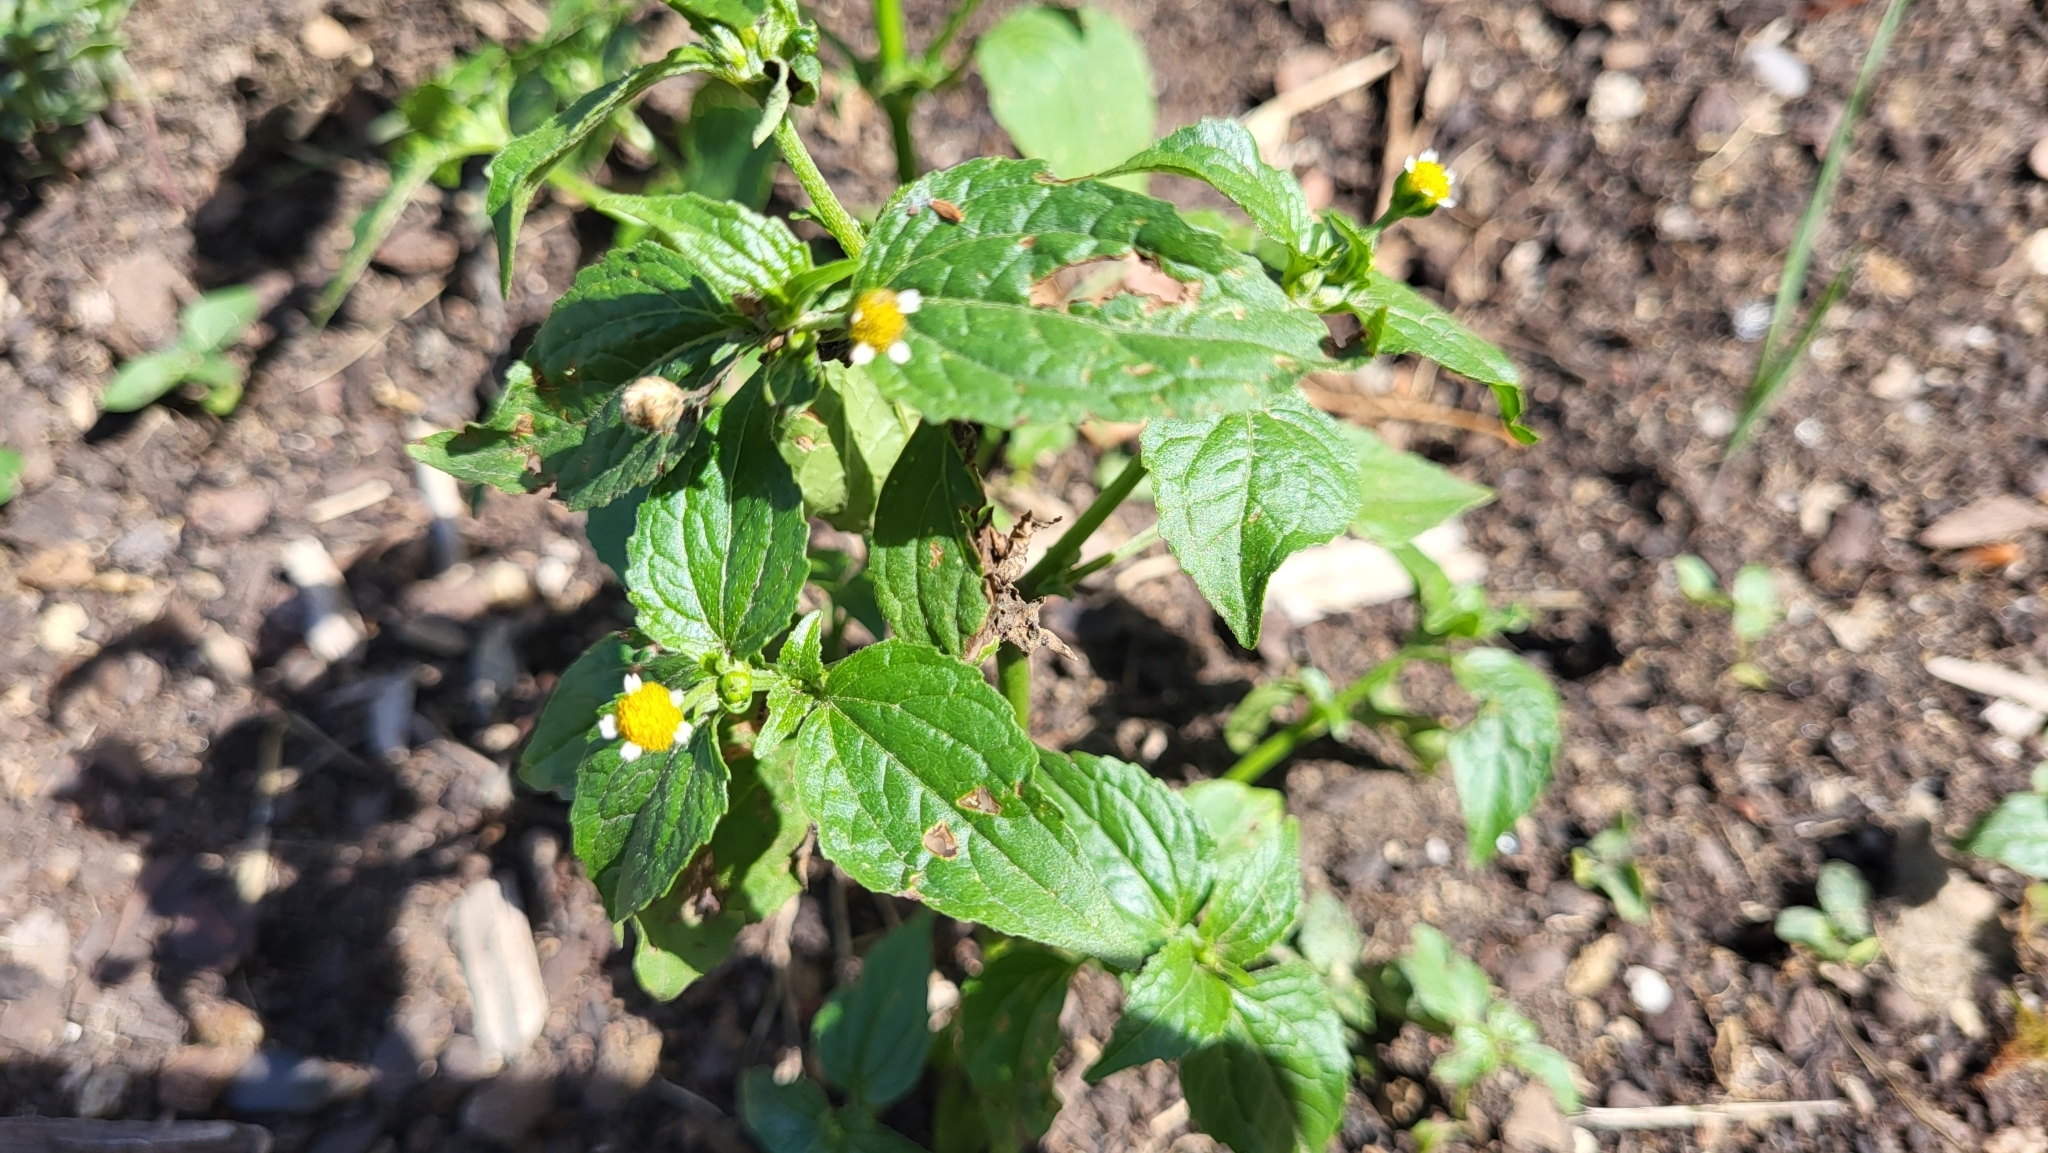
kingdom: Plantae
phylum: Tracheophyta
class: Magnoliopsida
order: Asterales
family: Asteraceae
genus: Galinsoga
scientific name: Galinsoga parviflora
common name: Gallant soldier
